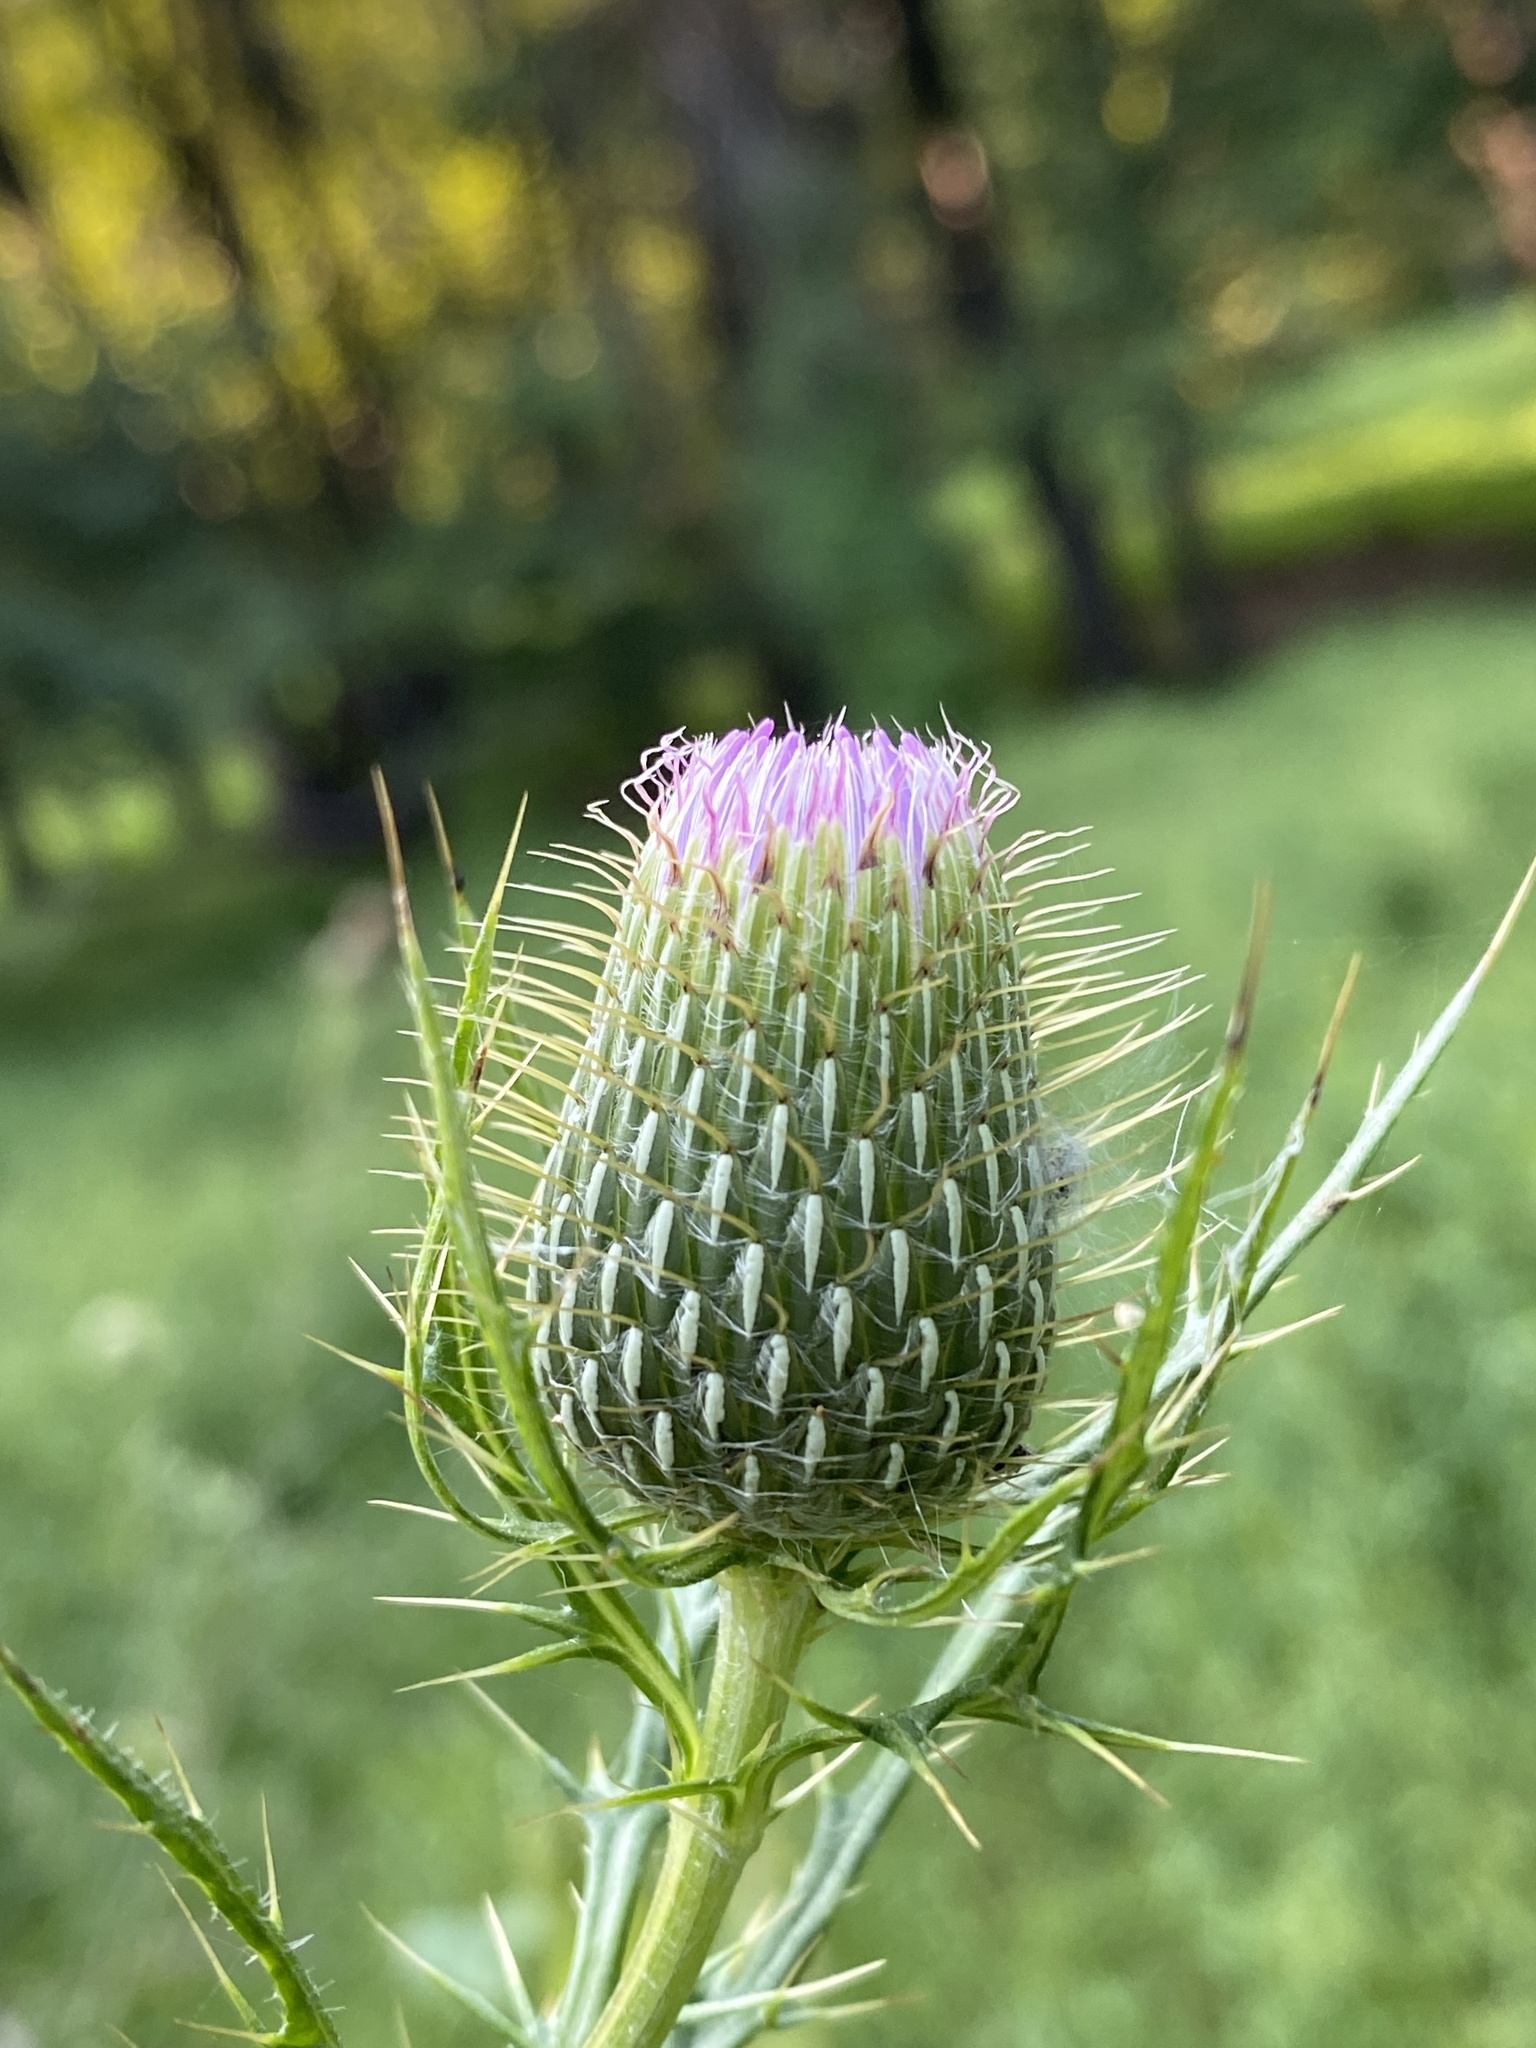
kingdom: Plantae
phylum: Tracheophyta
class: Magnoliopsida
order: Asterales
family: Asteraceae
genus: Cirsium
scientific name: Cirsium discolor
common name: Field thistle
